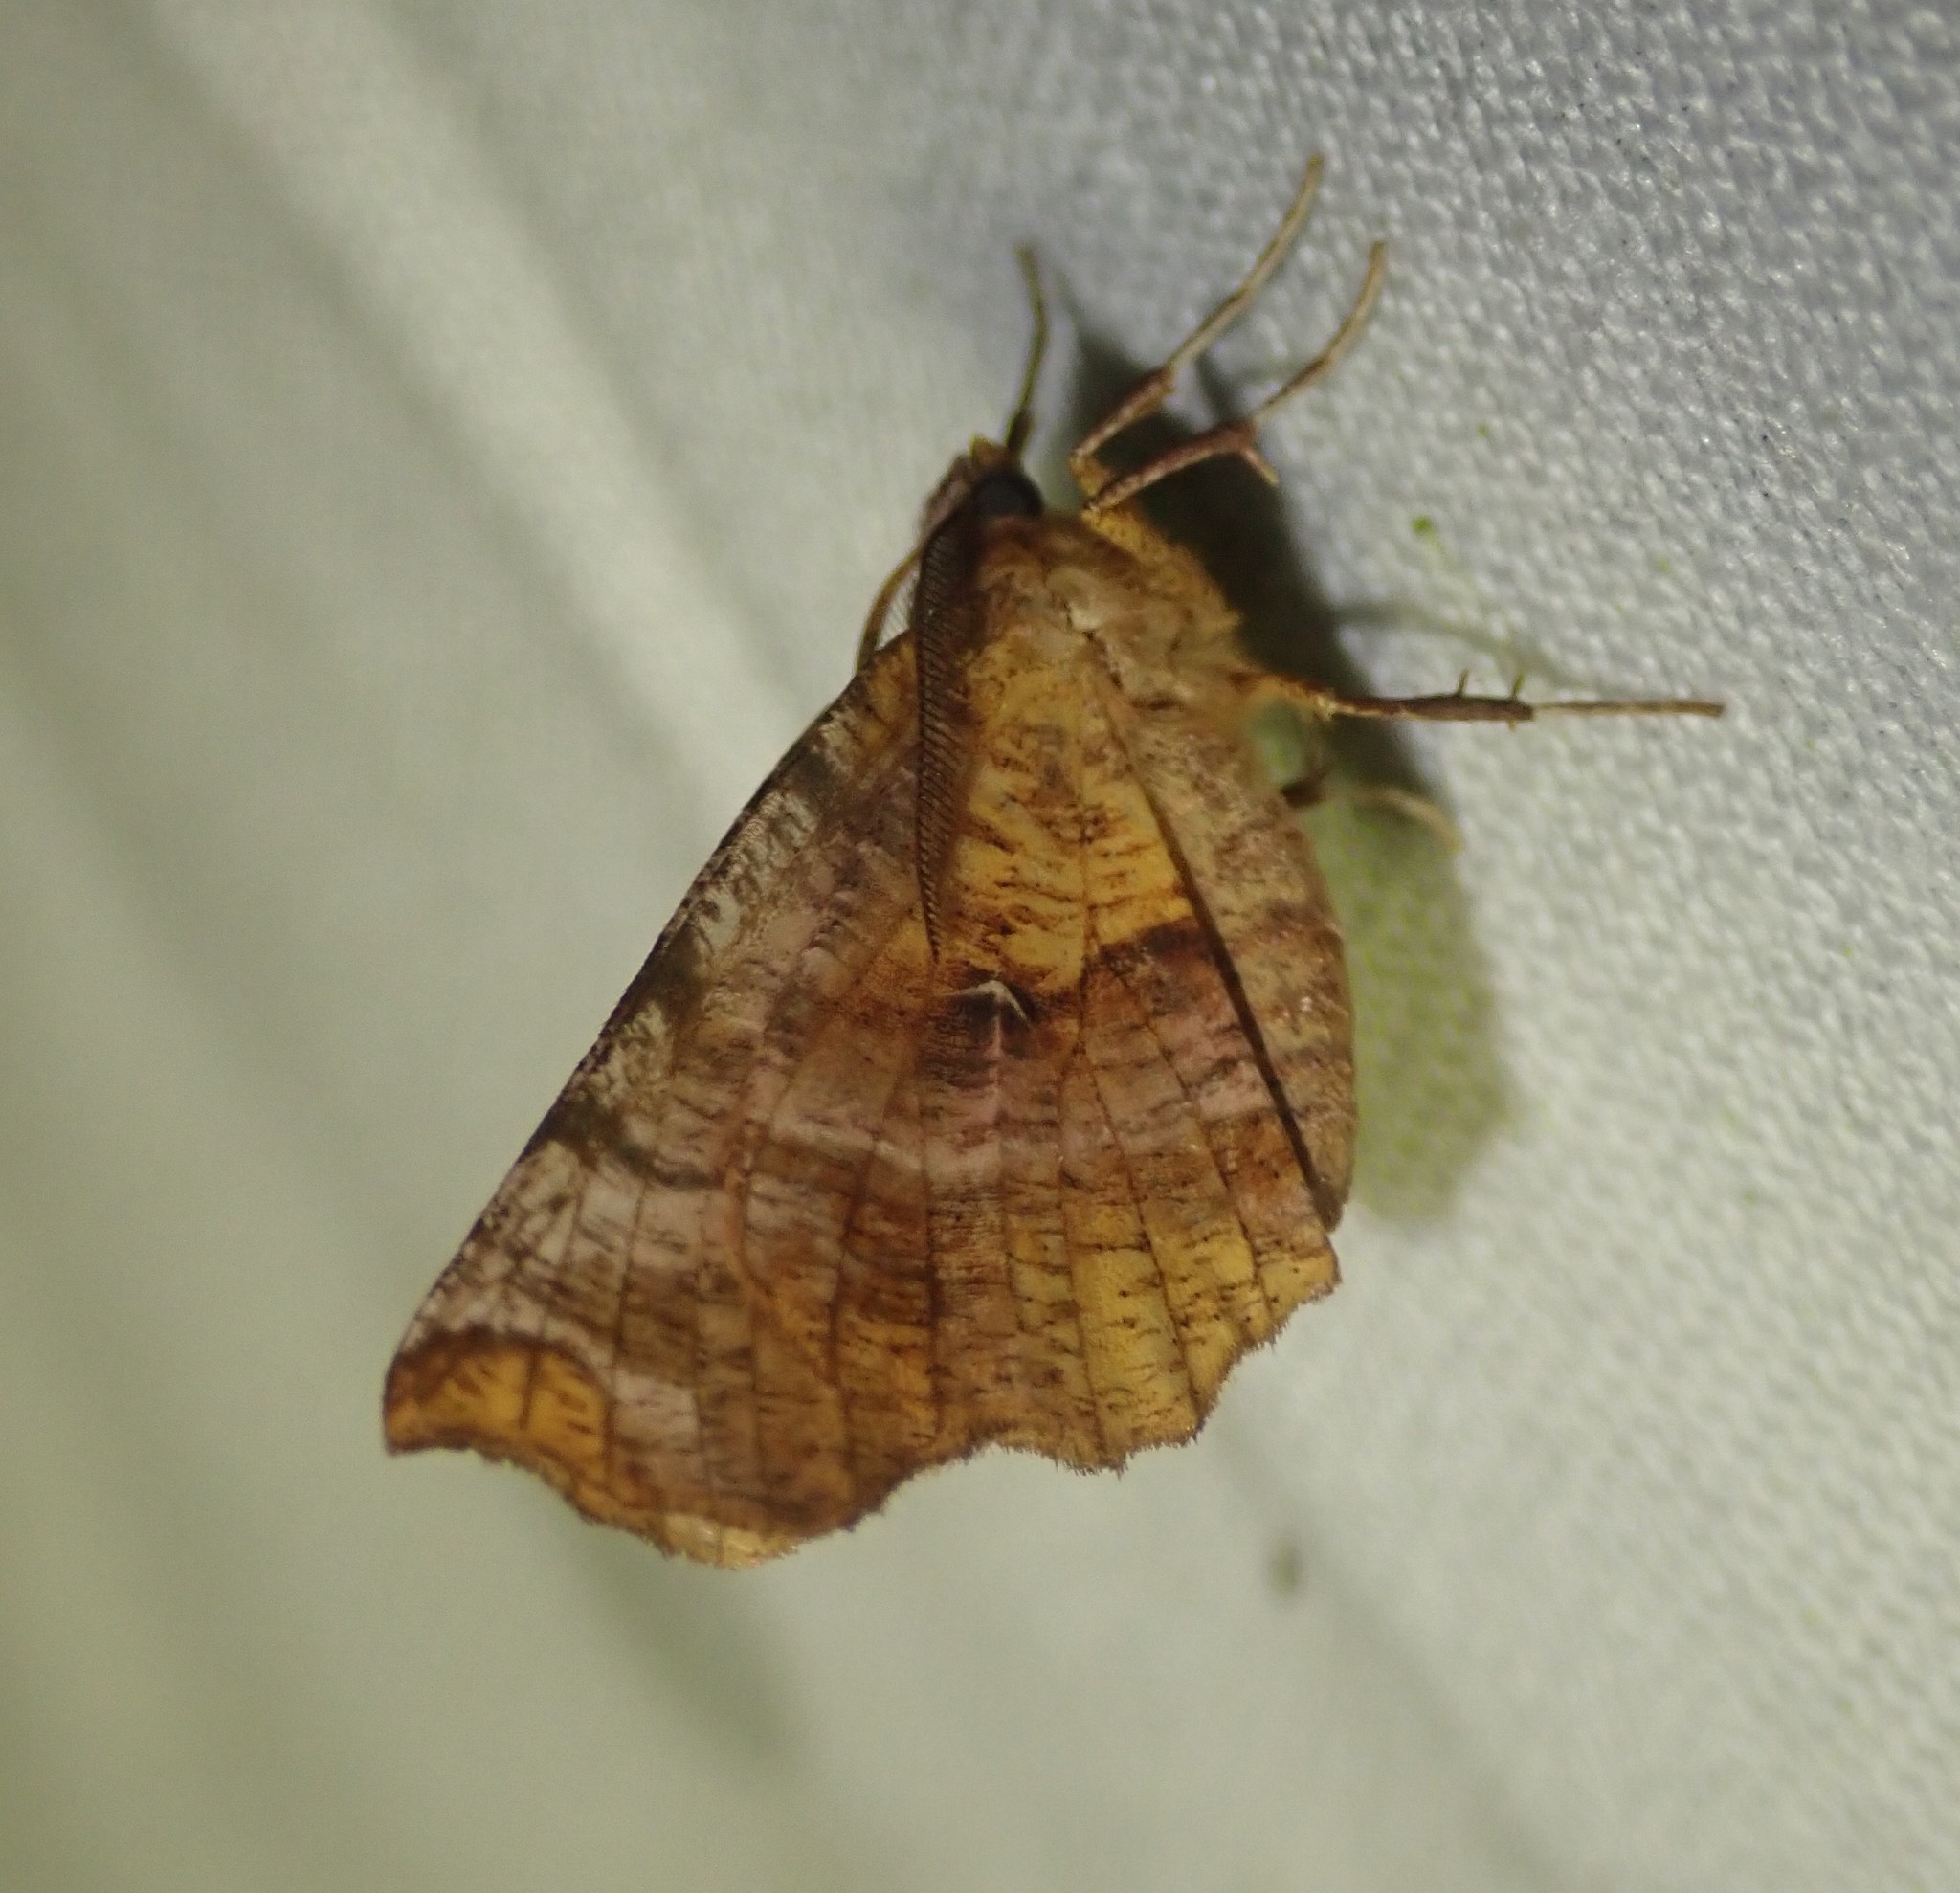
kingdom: Animalia
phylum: Arthropoda
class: Insecta
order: Lepidoptera
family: Geometridae
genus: Selenia
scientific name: Selenia dentaria
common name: Early thorn
